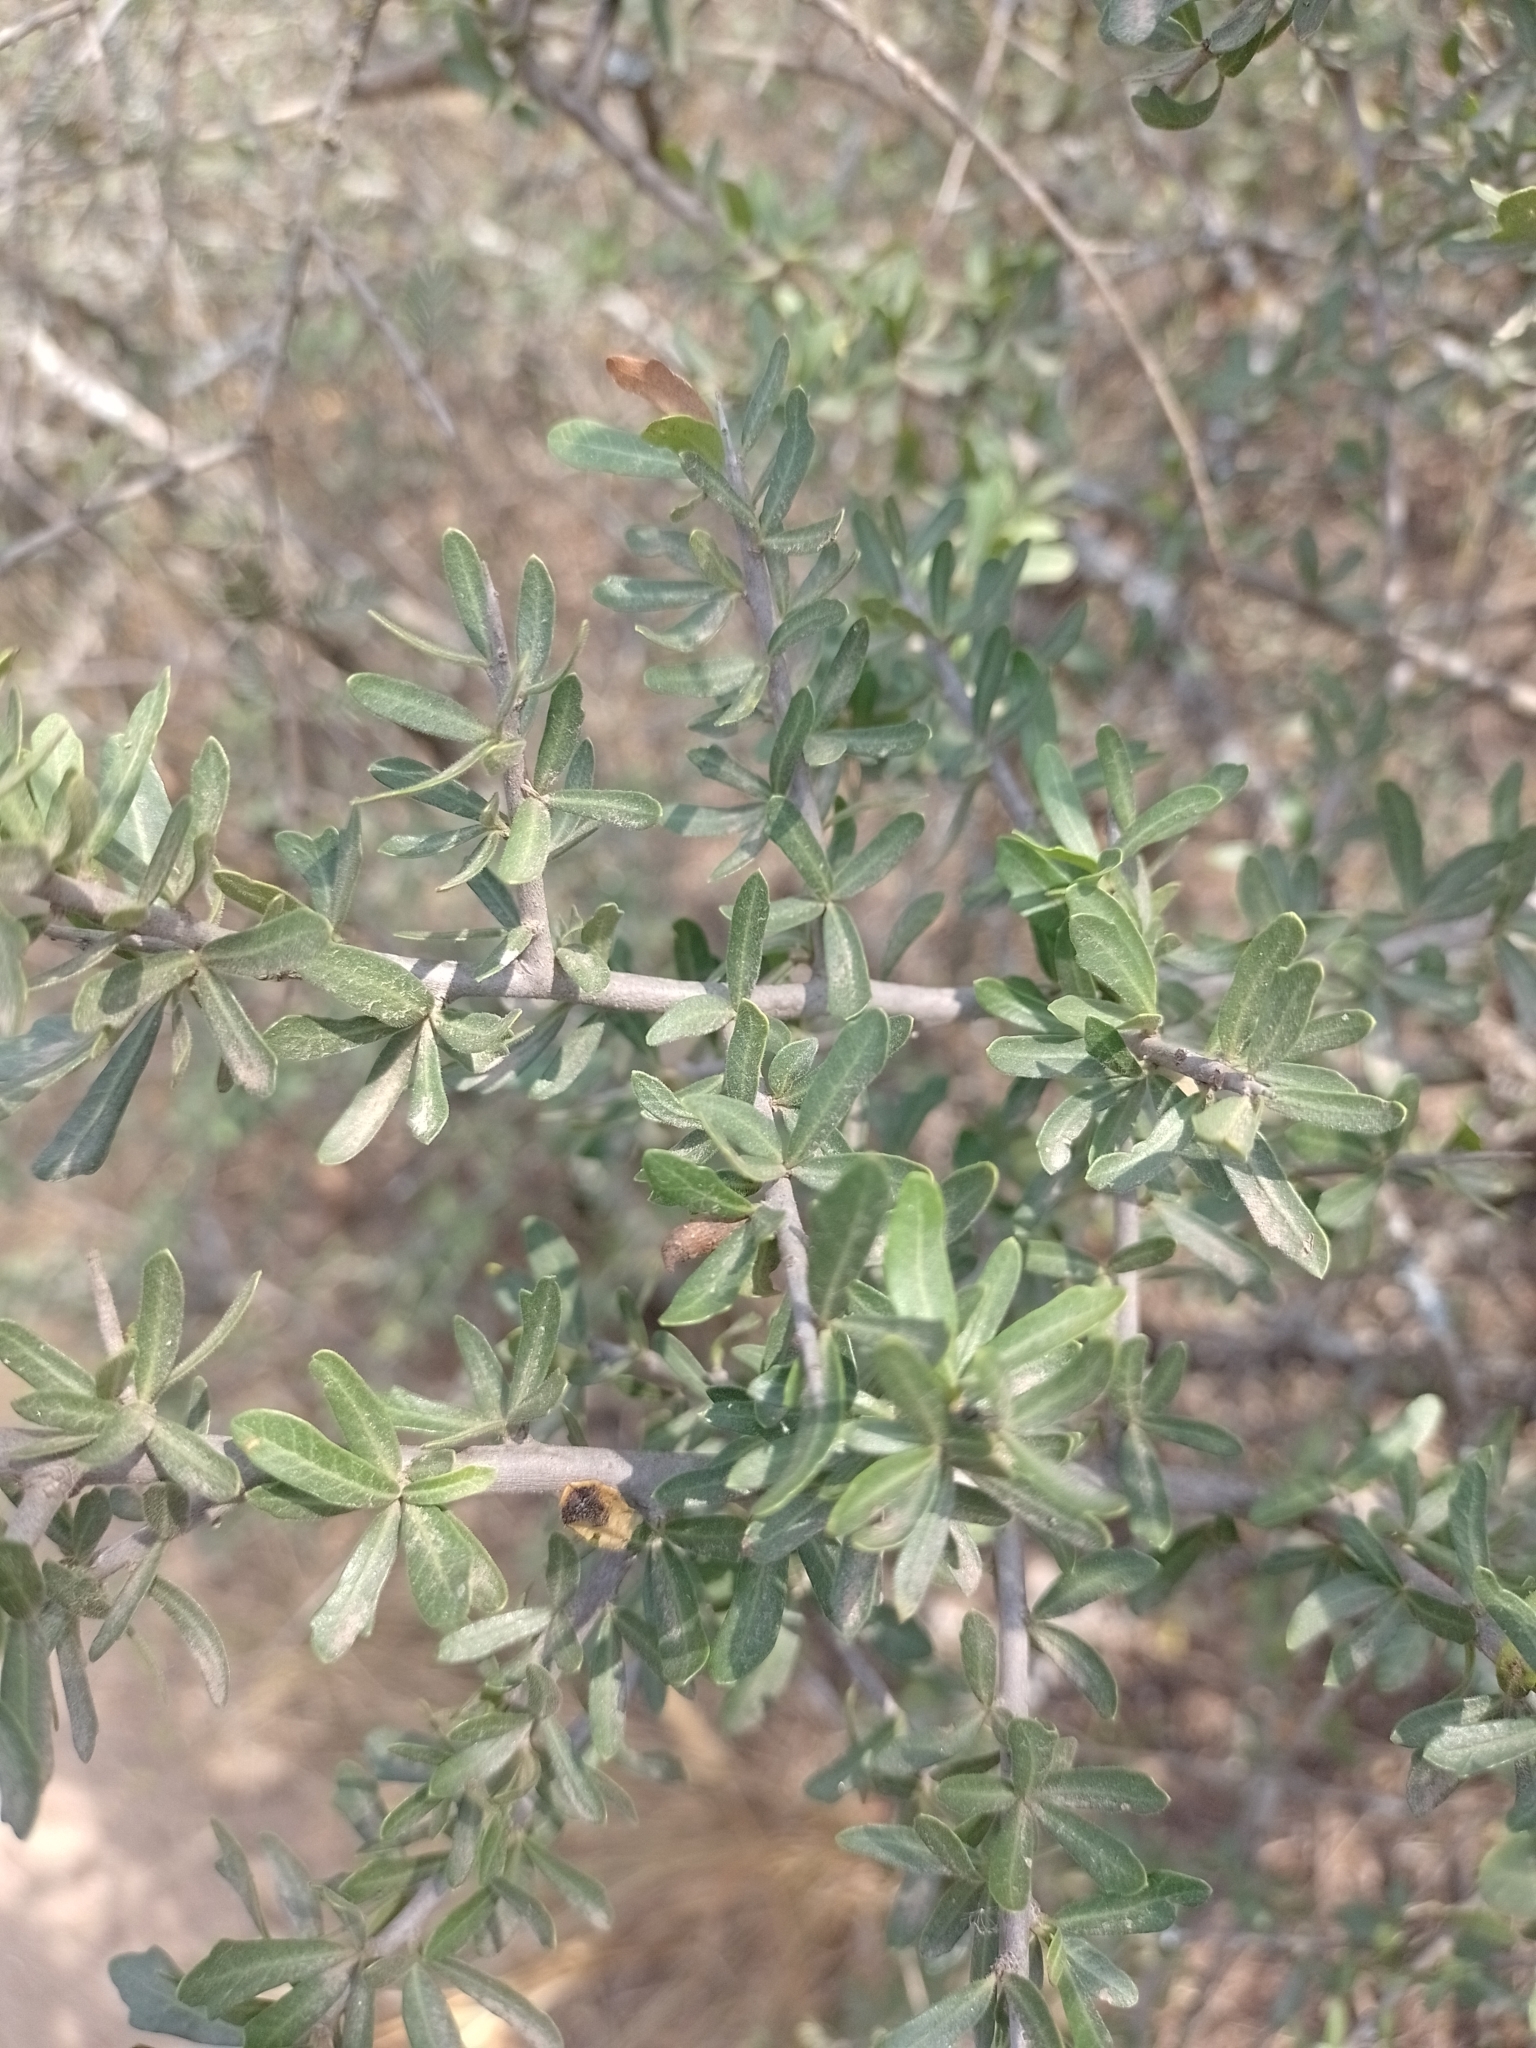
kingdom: Plantae
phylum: Tracheophyta
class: Magnoliopsida
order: Sapindales
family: Anacardiaceae
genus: Schinus
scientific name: Schinus fasciculata
